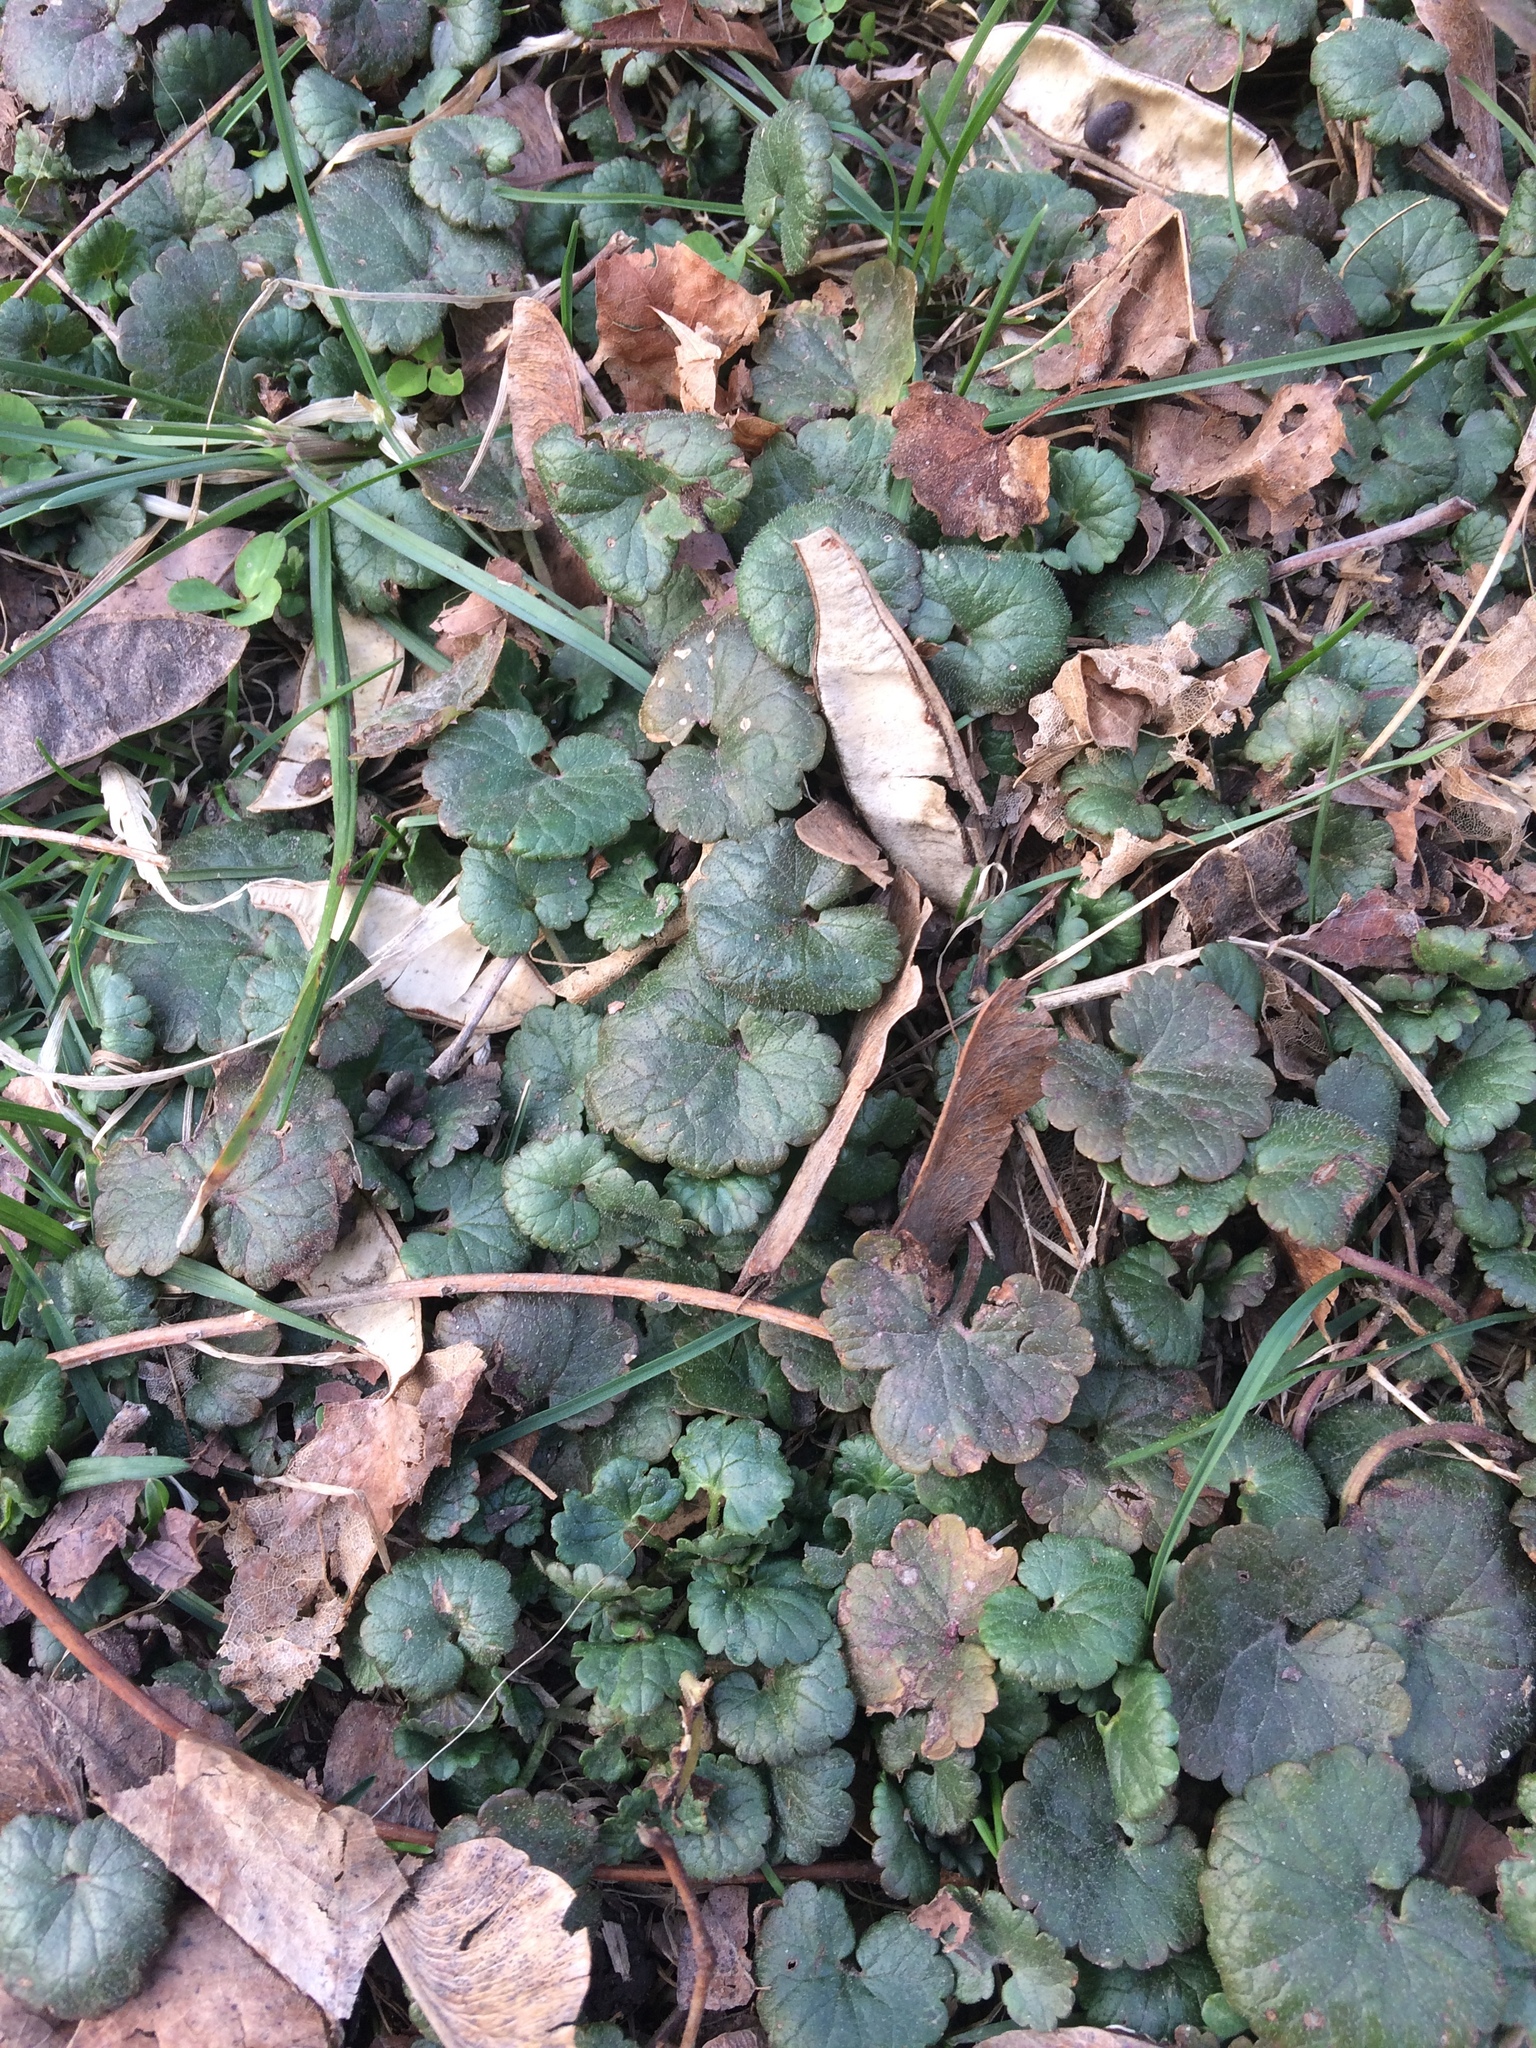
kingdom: Plantae
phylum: Tracheophyta
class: Magnoliopsida
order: Lamiales
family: Lamiaceae
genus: Glechoma
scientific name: Glechoma hederacea
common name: Ground ivy
